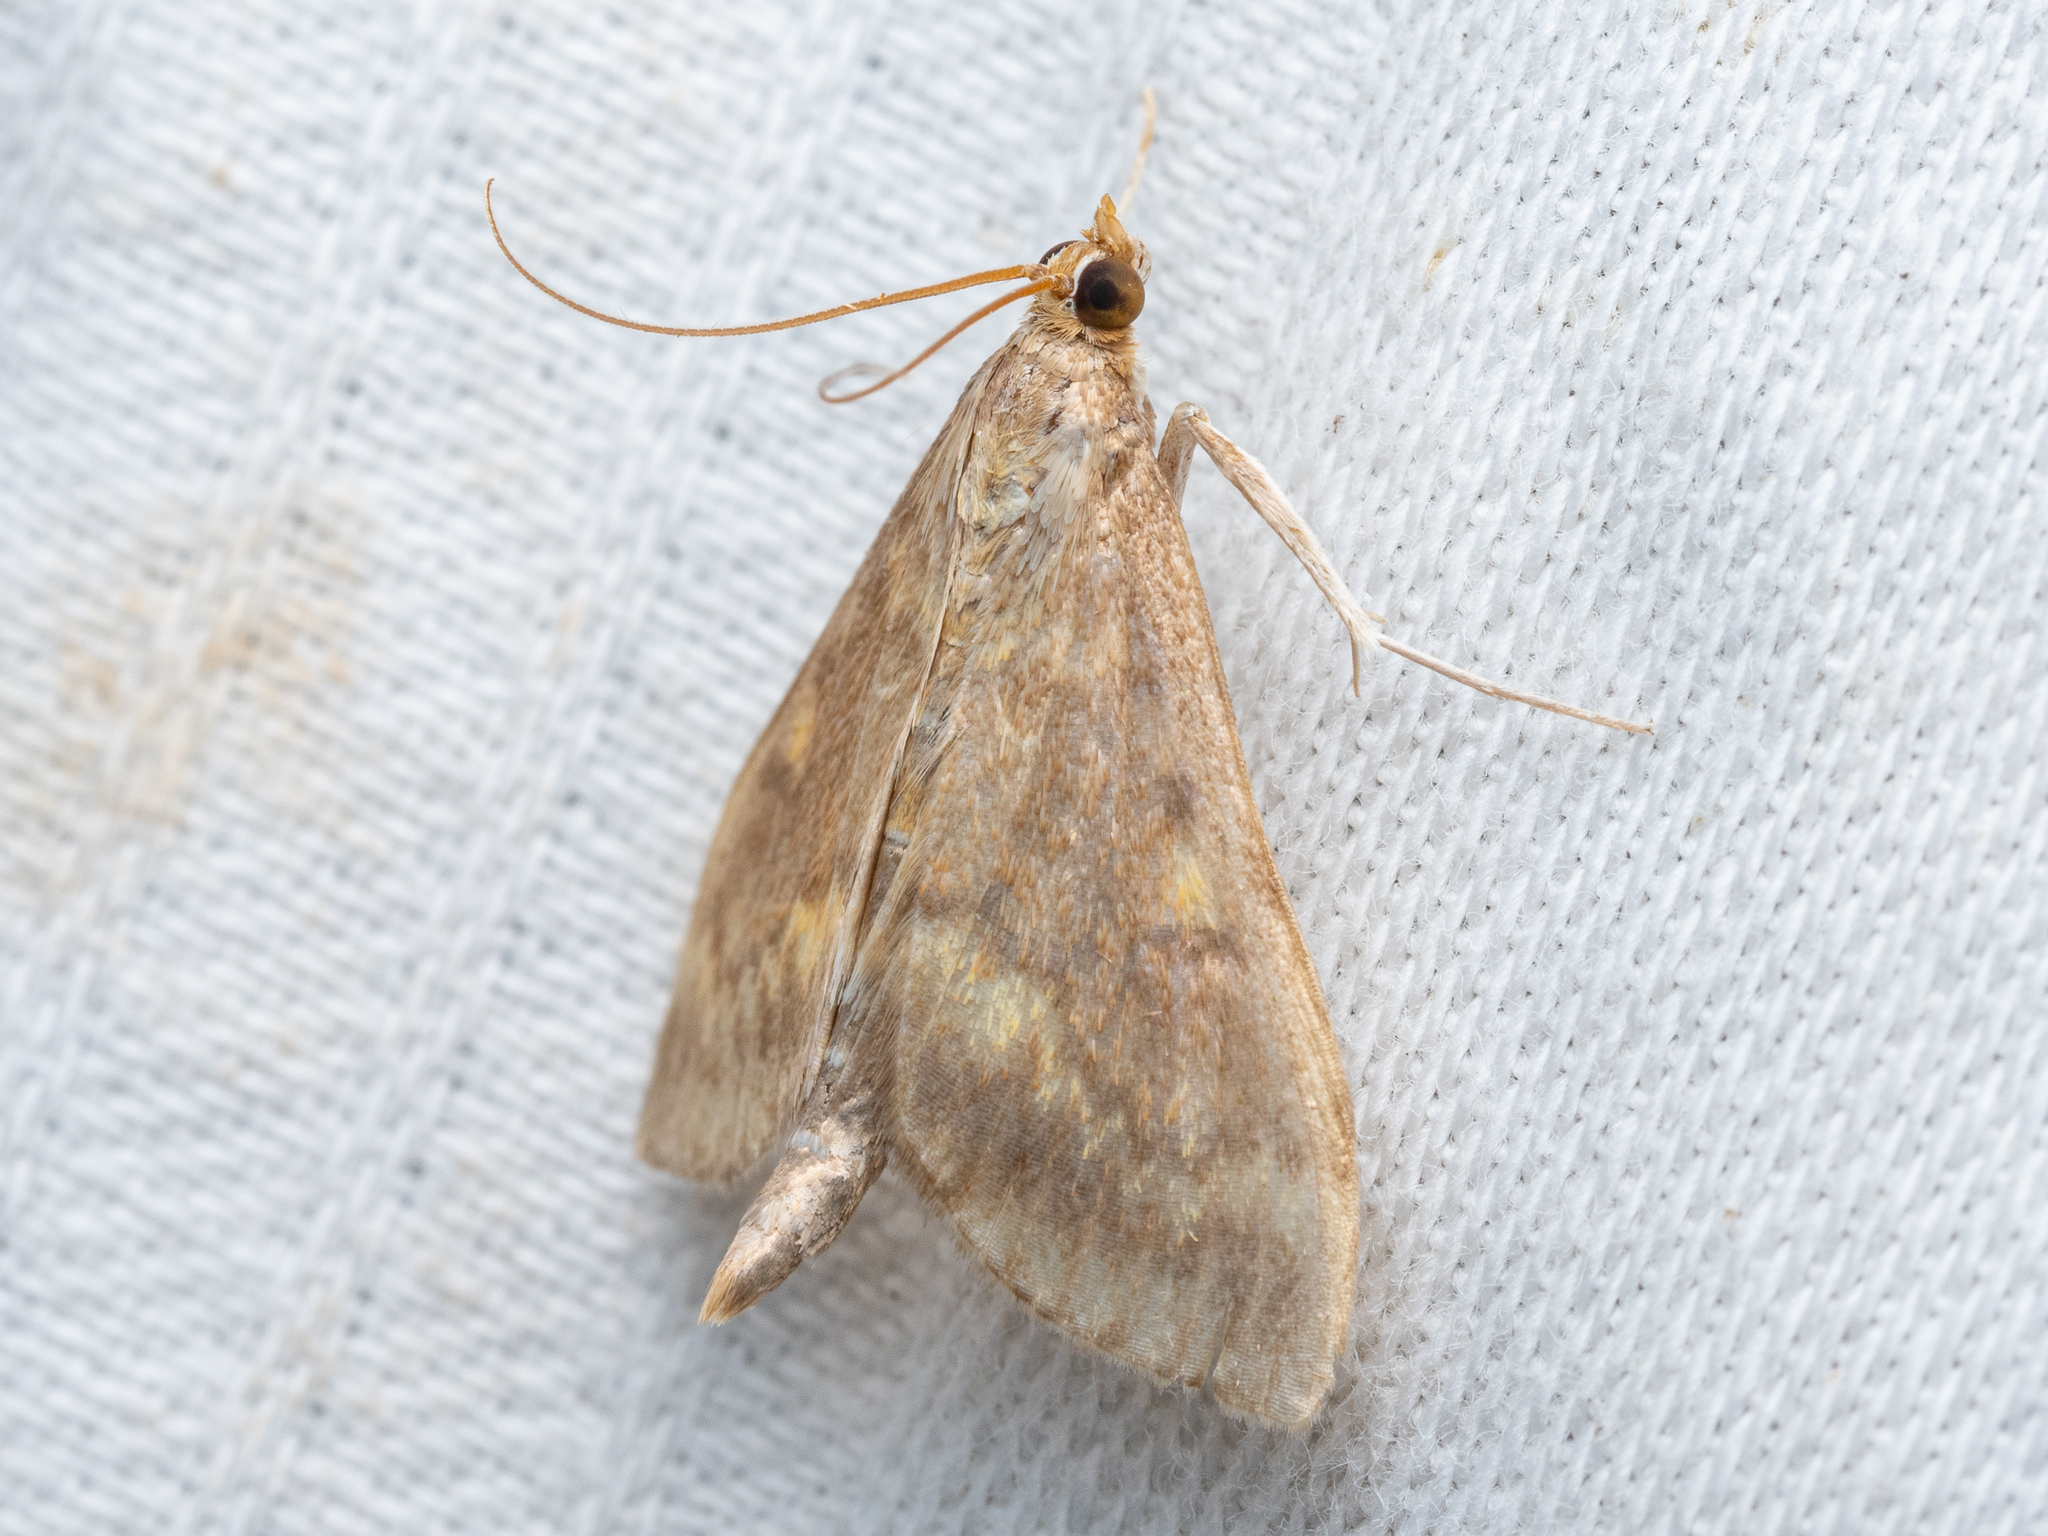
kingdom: Animalia
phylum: Arthropoda
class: Insecta
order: Lepidoptera
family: Crambidae
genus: Ostrinia
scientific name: Ostrinia nubilalis
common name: European corn borer
